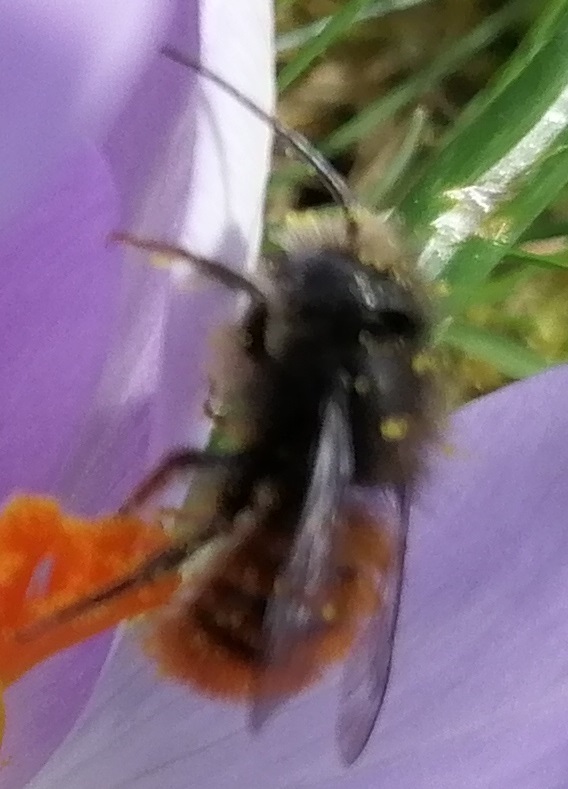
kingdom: Animalia
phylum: Arthropoda
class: Insecta
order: Hymenoptera
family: Megachilidae
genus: Osmia
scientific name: Osmia cornuta
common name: Mason bee
